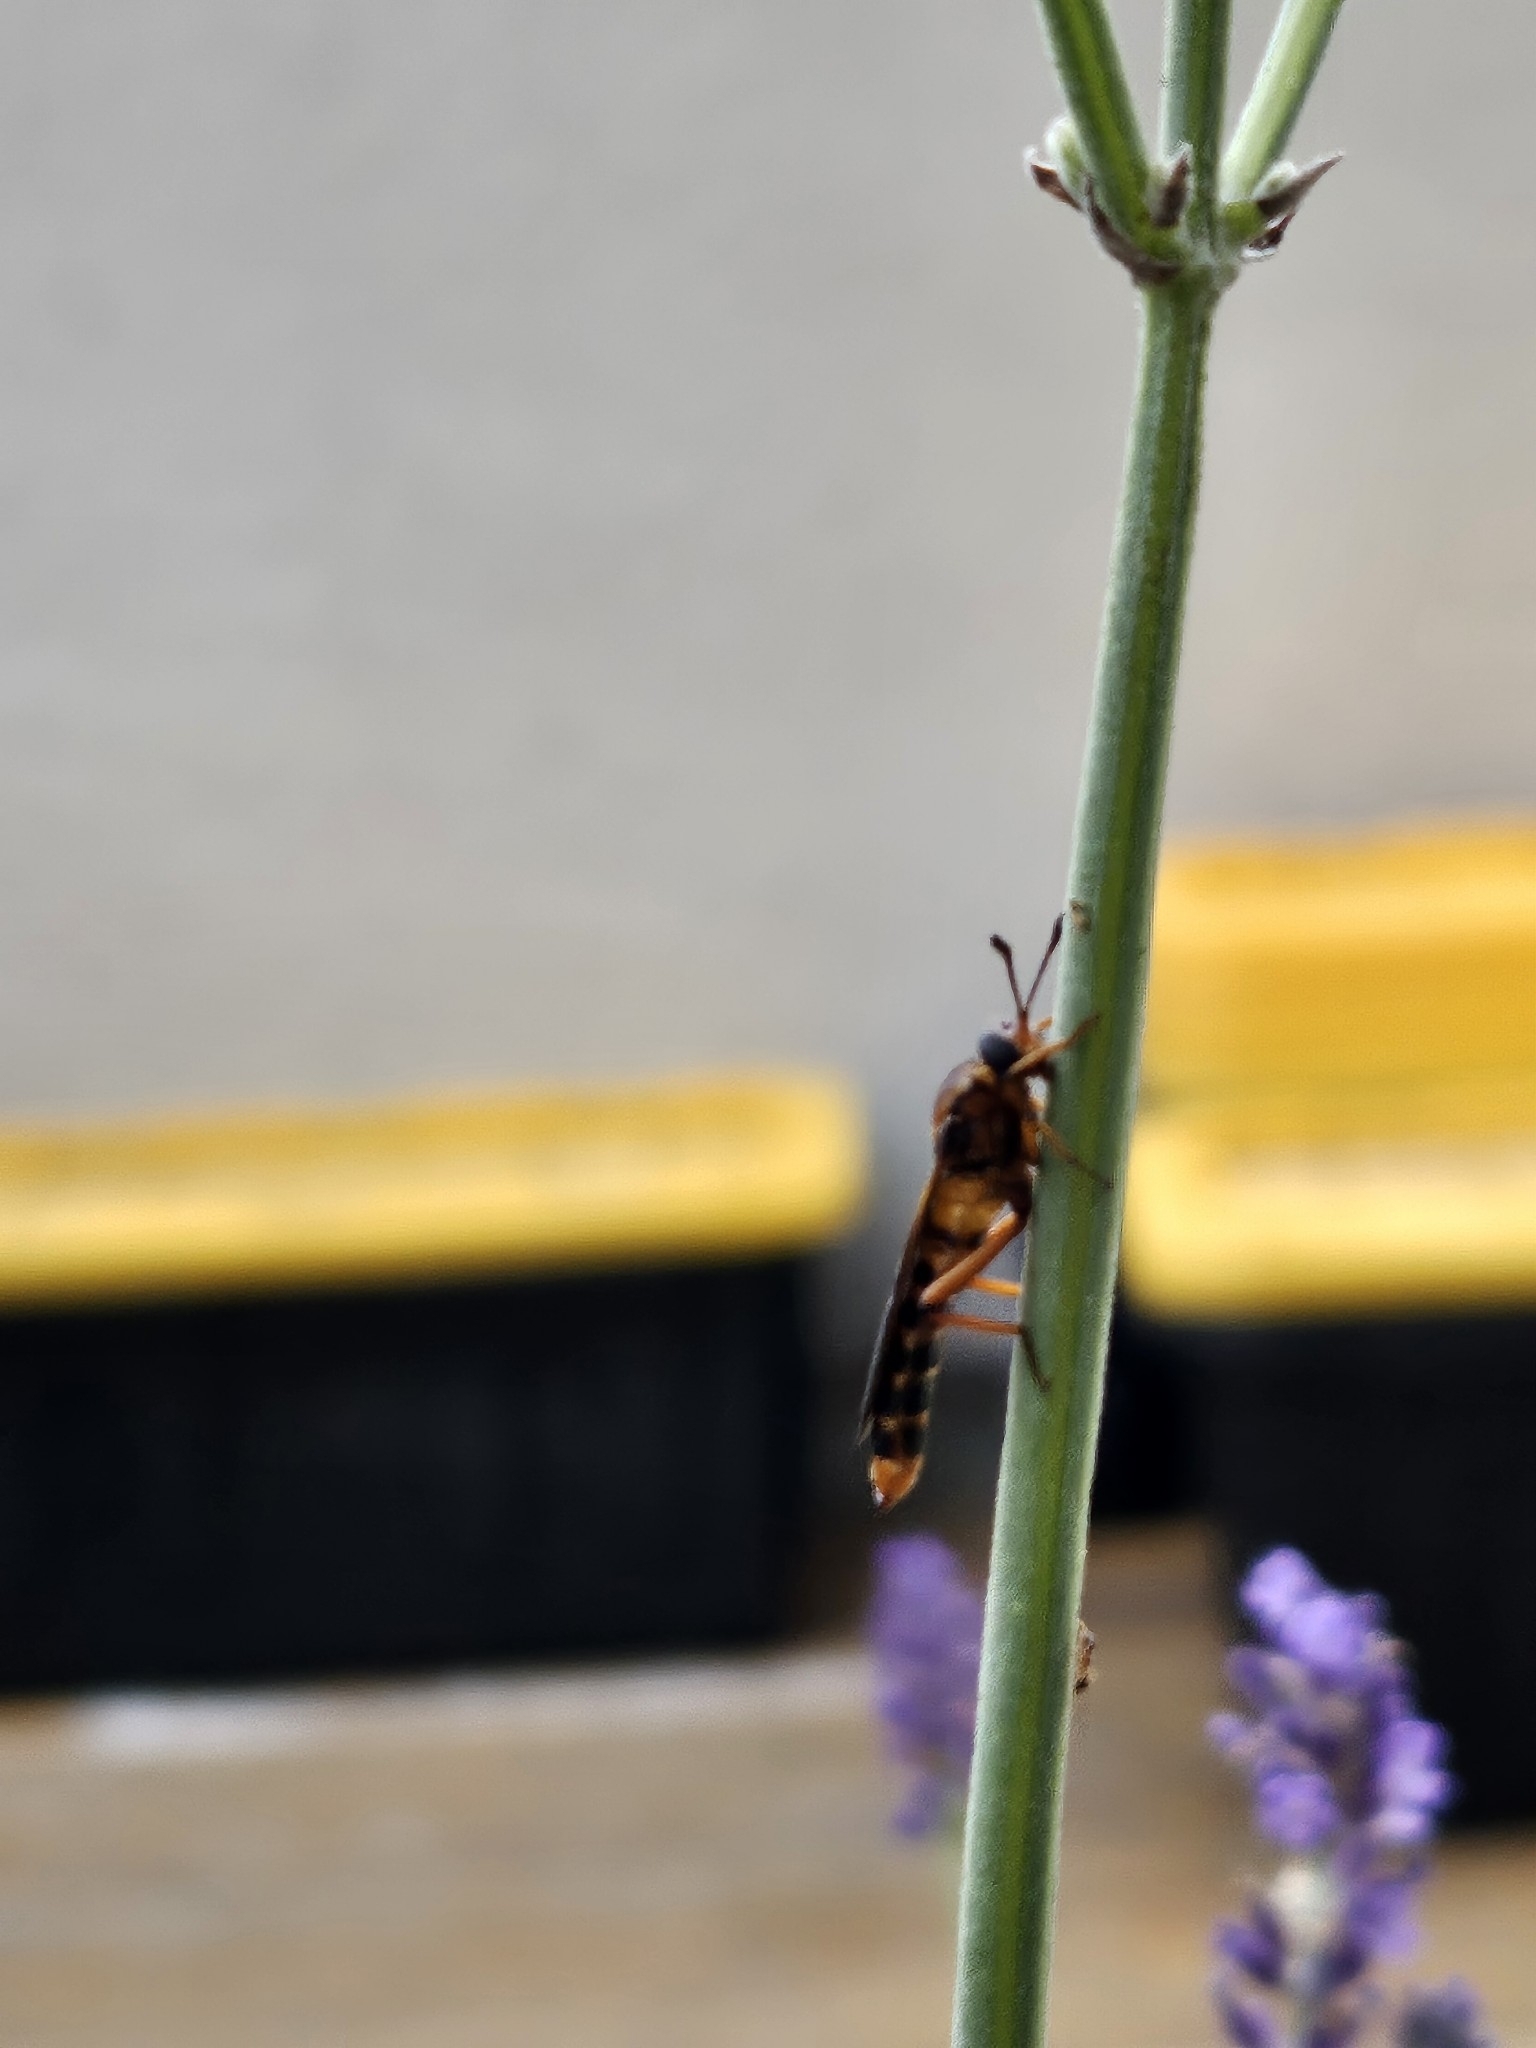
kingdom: Animalia
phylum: Arthropoda
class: Insecta
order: Diptera
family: Mydidae
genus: Phyllomydas
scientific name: Phyllomydas parvulus
